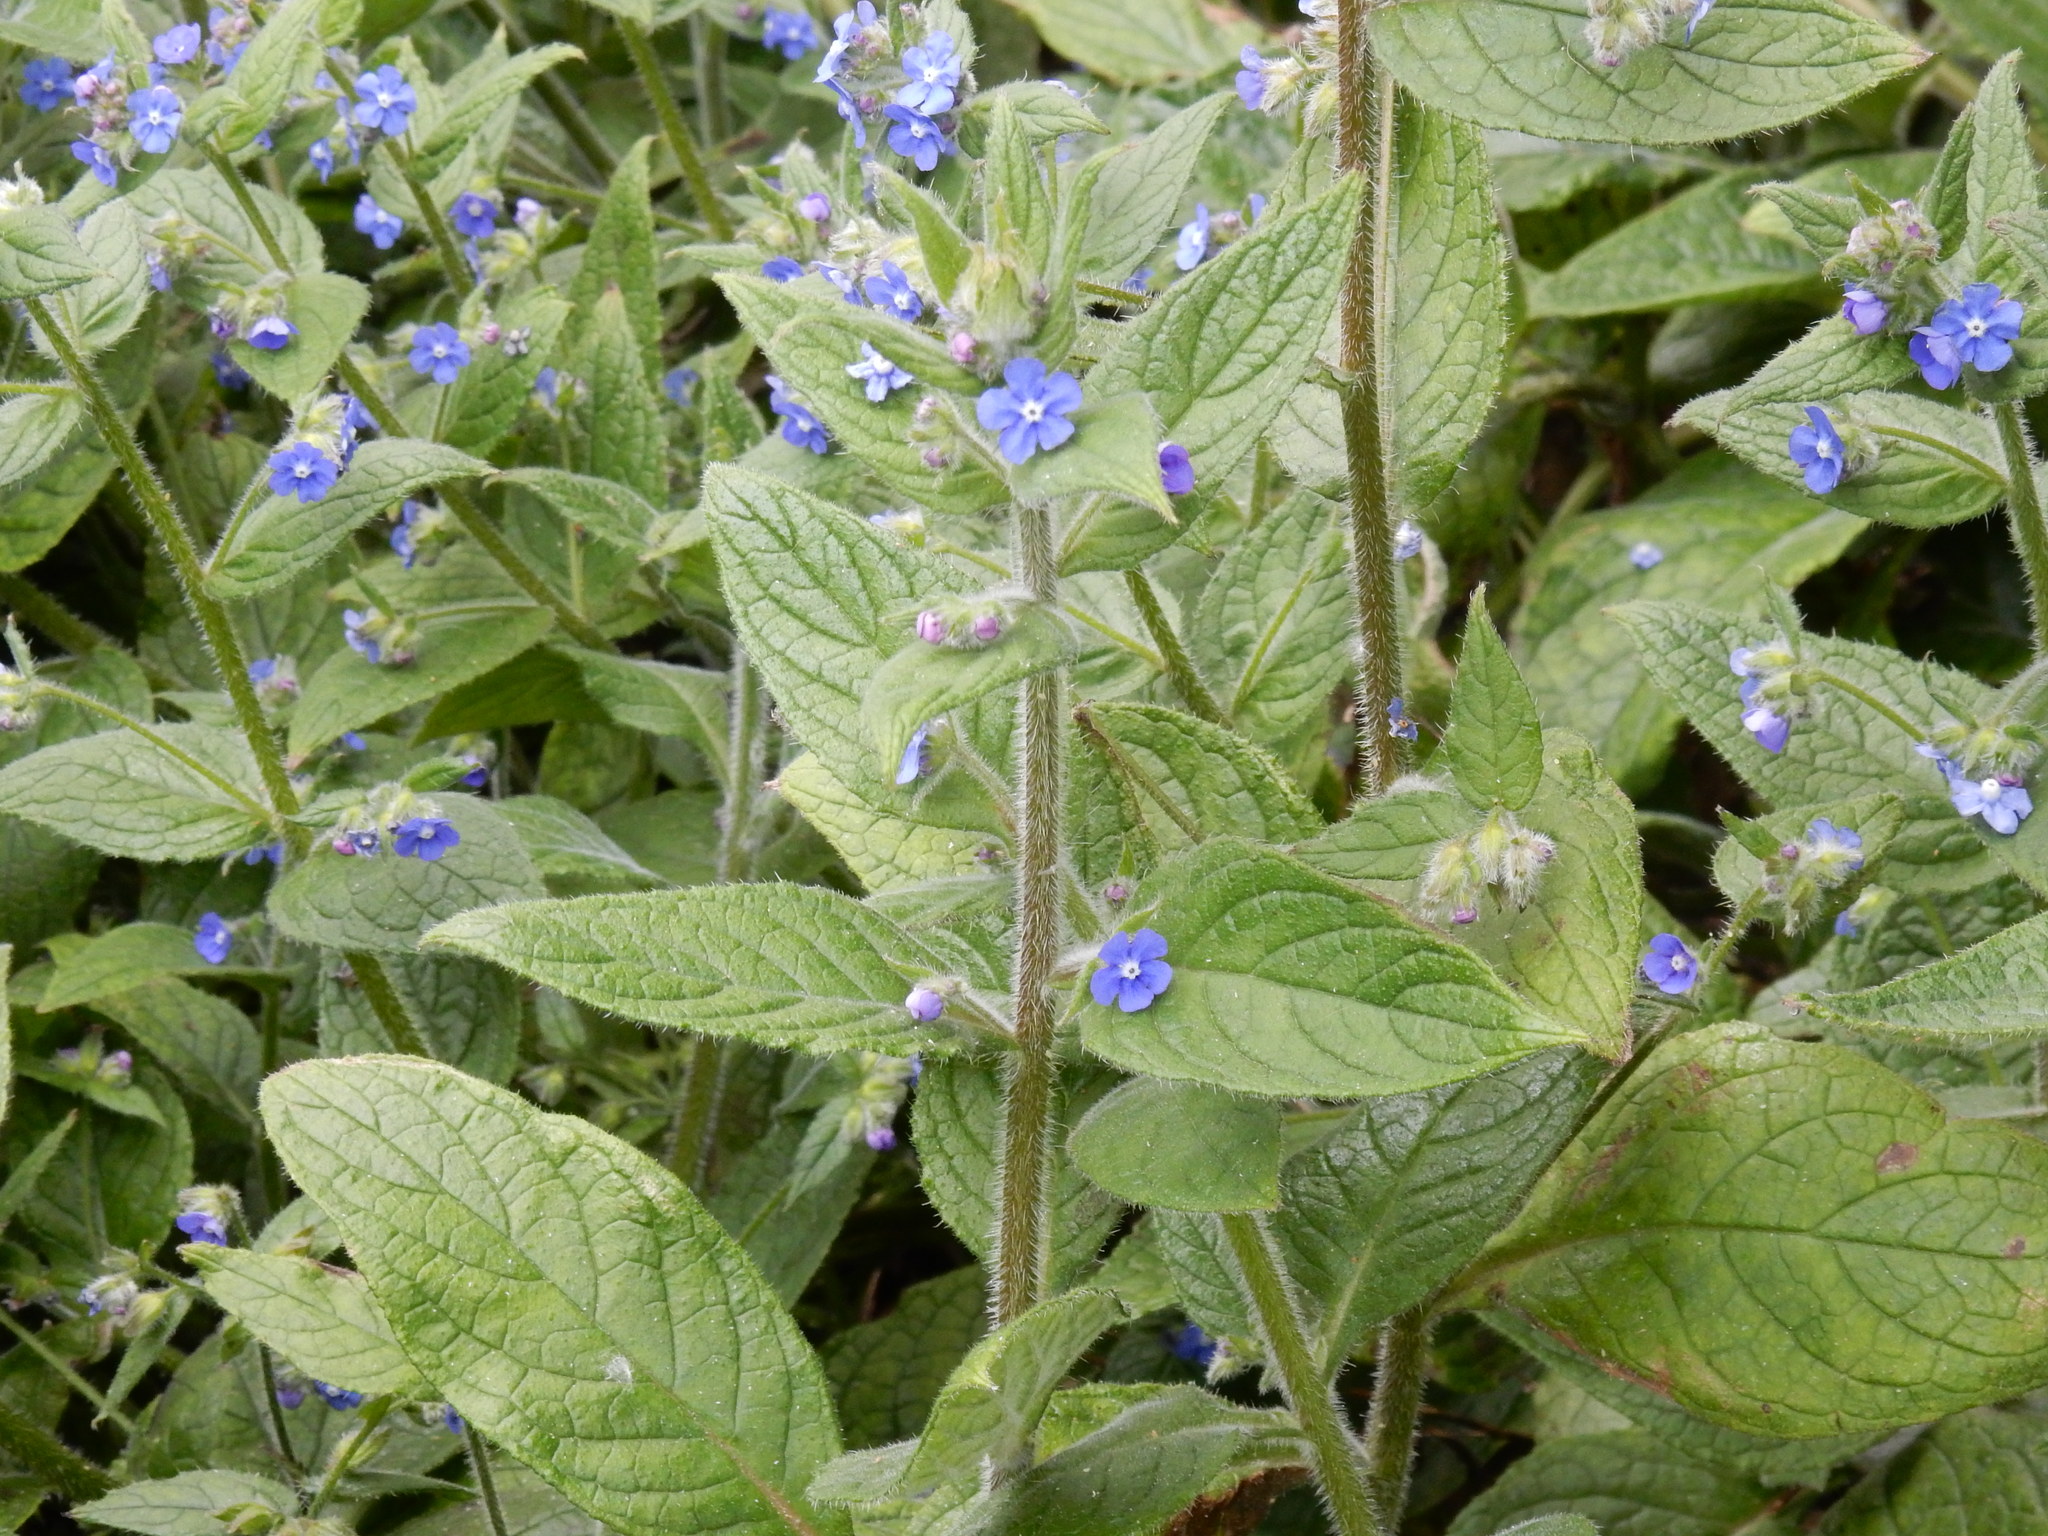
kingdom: Plantae
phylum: Tracheophyta
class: Magnoliopsida
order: Boraginales
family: Boraginaceae
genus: Pentaglottis
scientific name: Pentaglottis sempervirens
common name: Green alkanet
